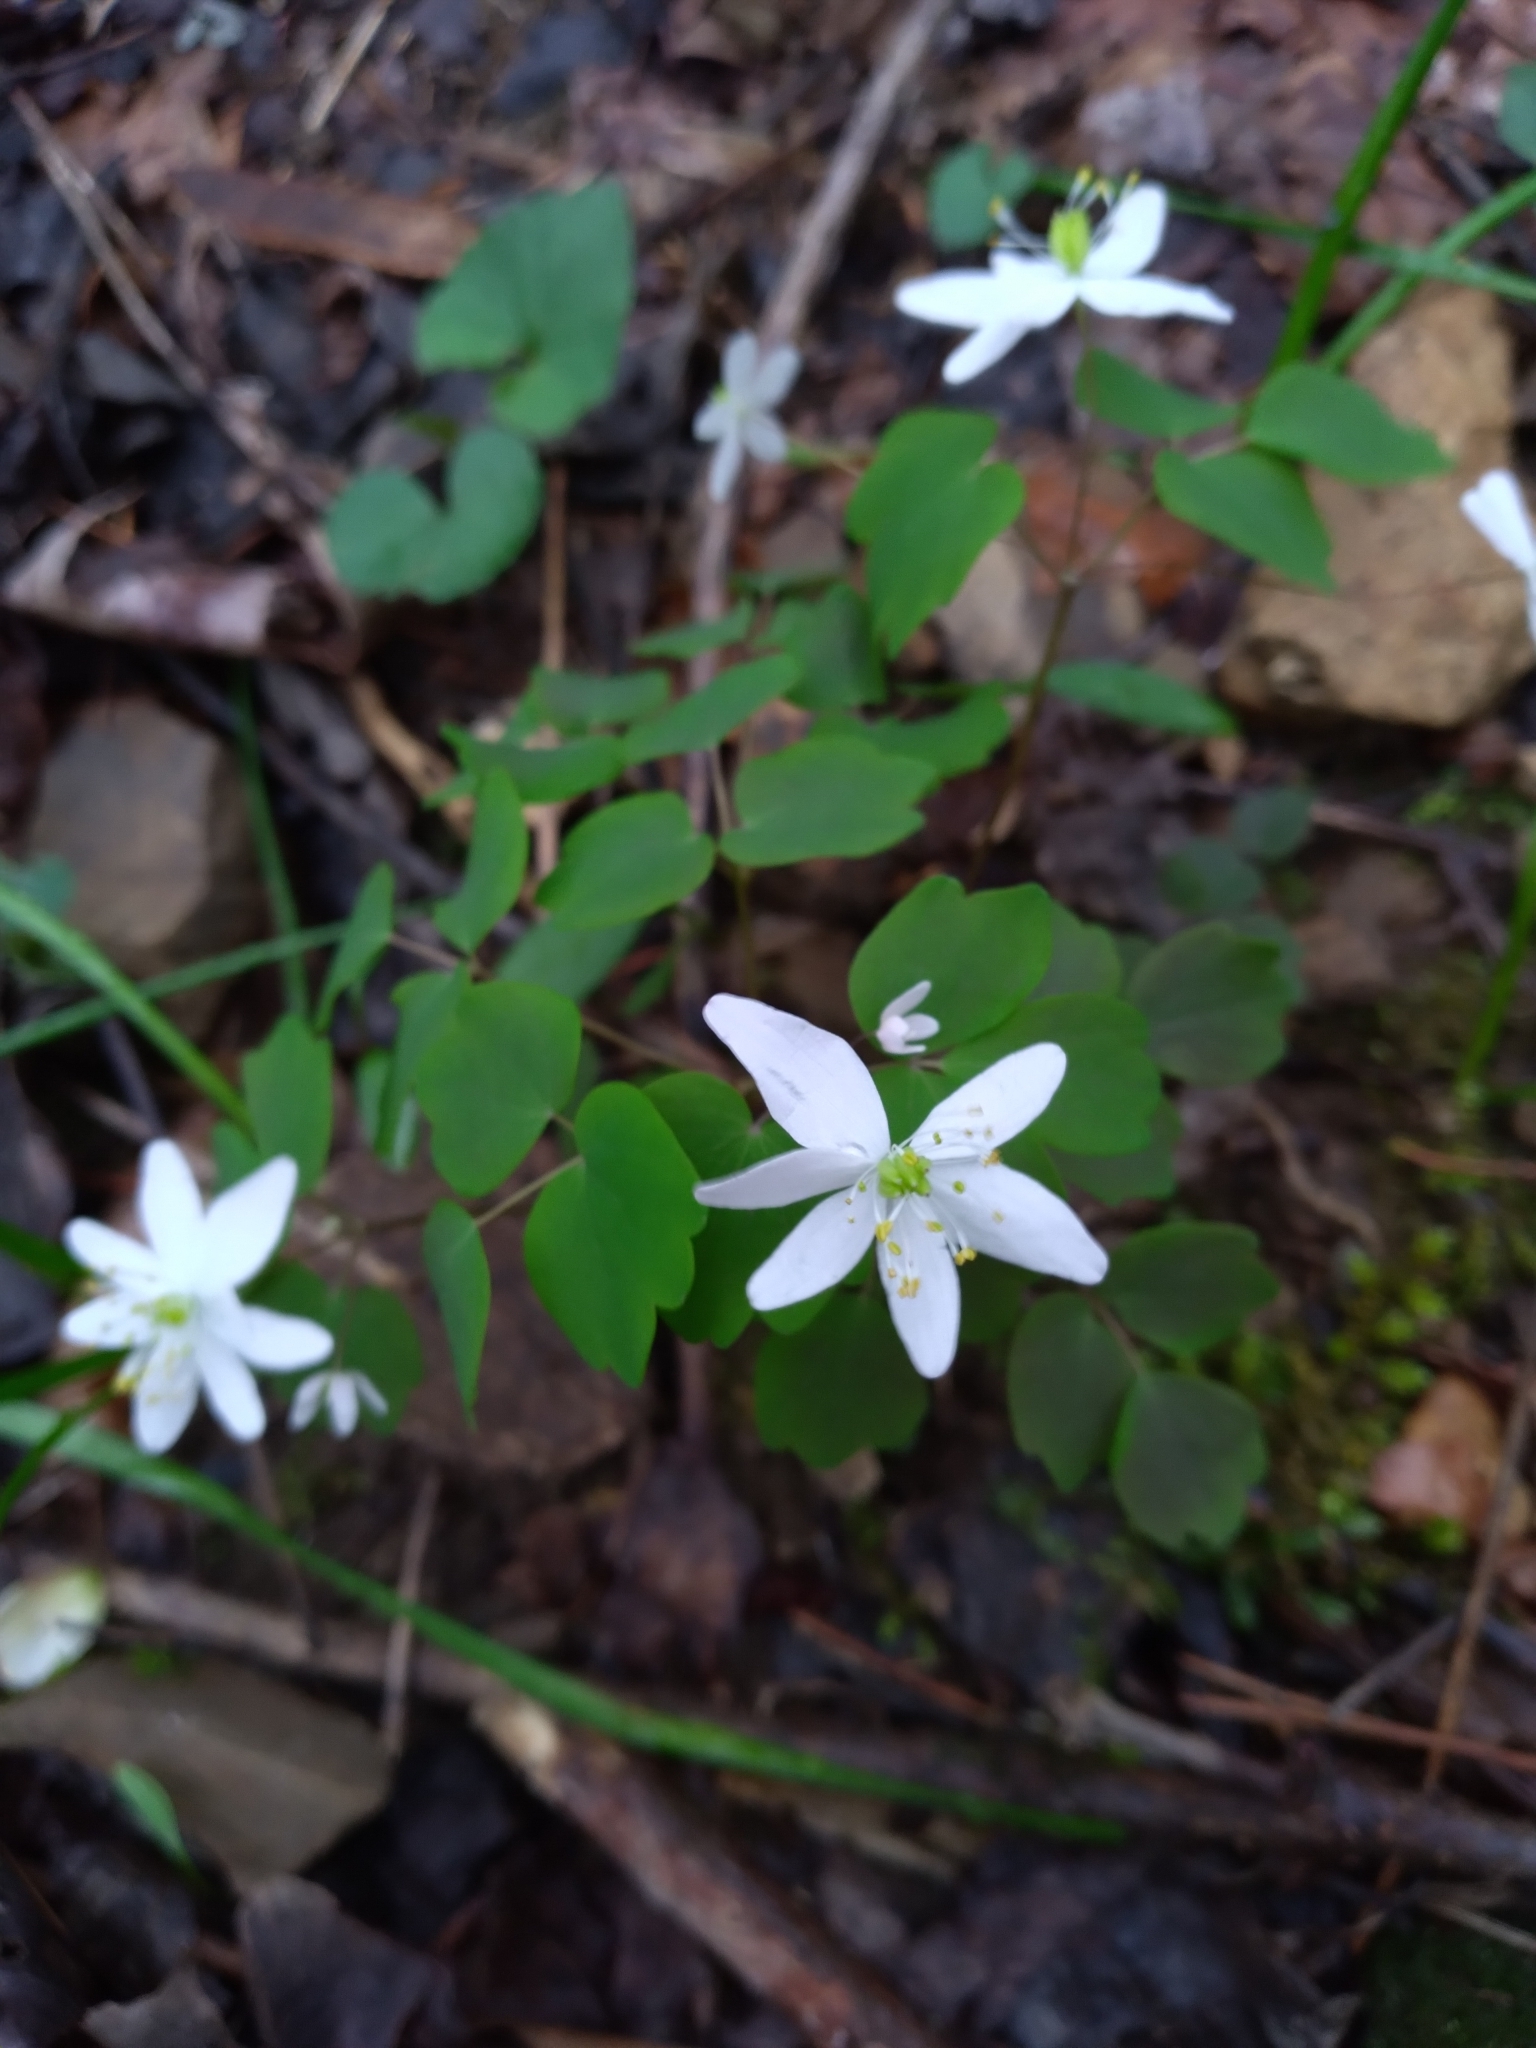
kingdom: Plantae
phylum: Tracheophyta
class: Magnoliopsida
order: Ranunculales
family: Ranunculaceae
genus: Thalictrum
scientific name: Thalictrum thalictroides
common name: Rue-anemone
